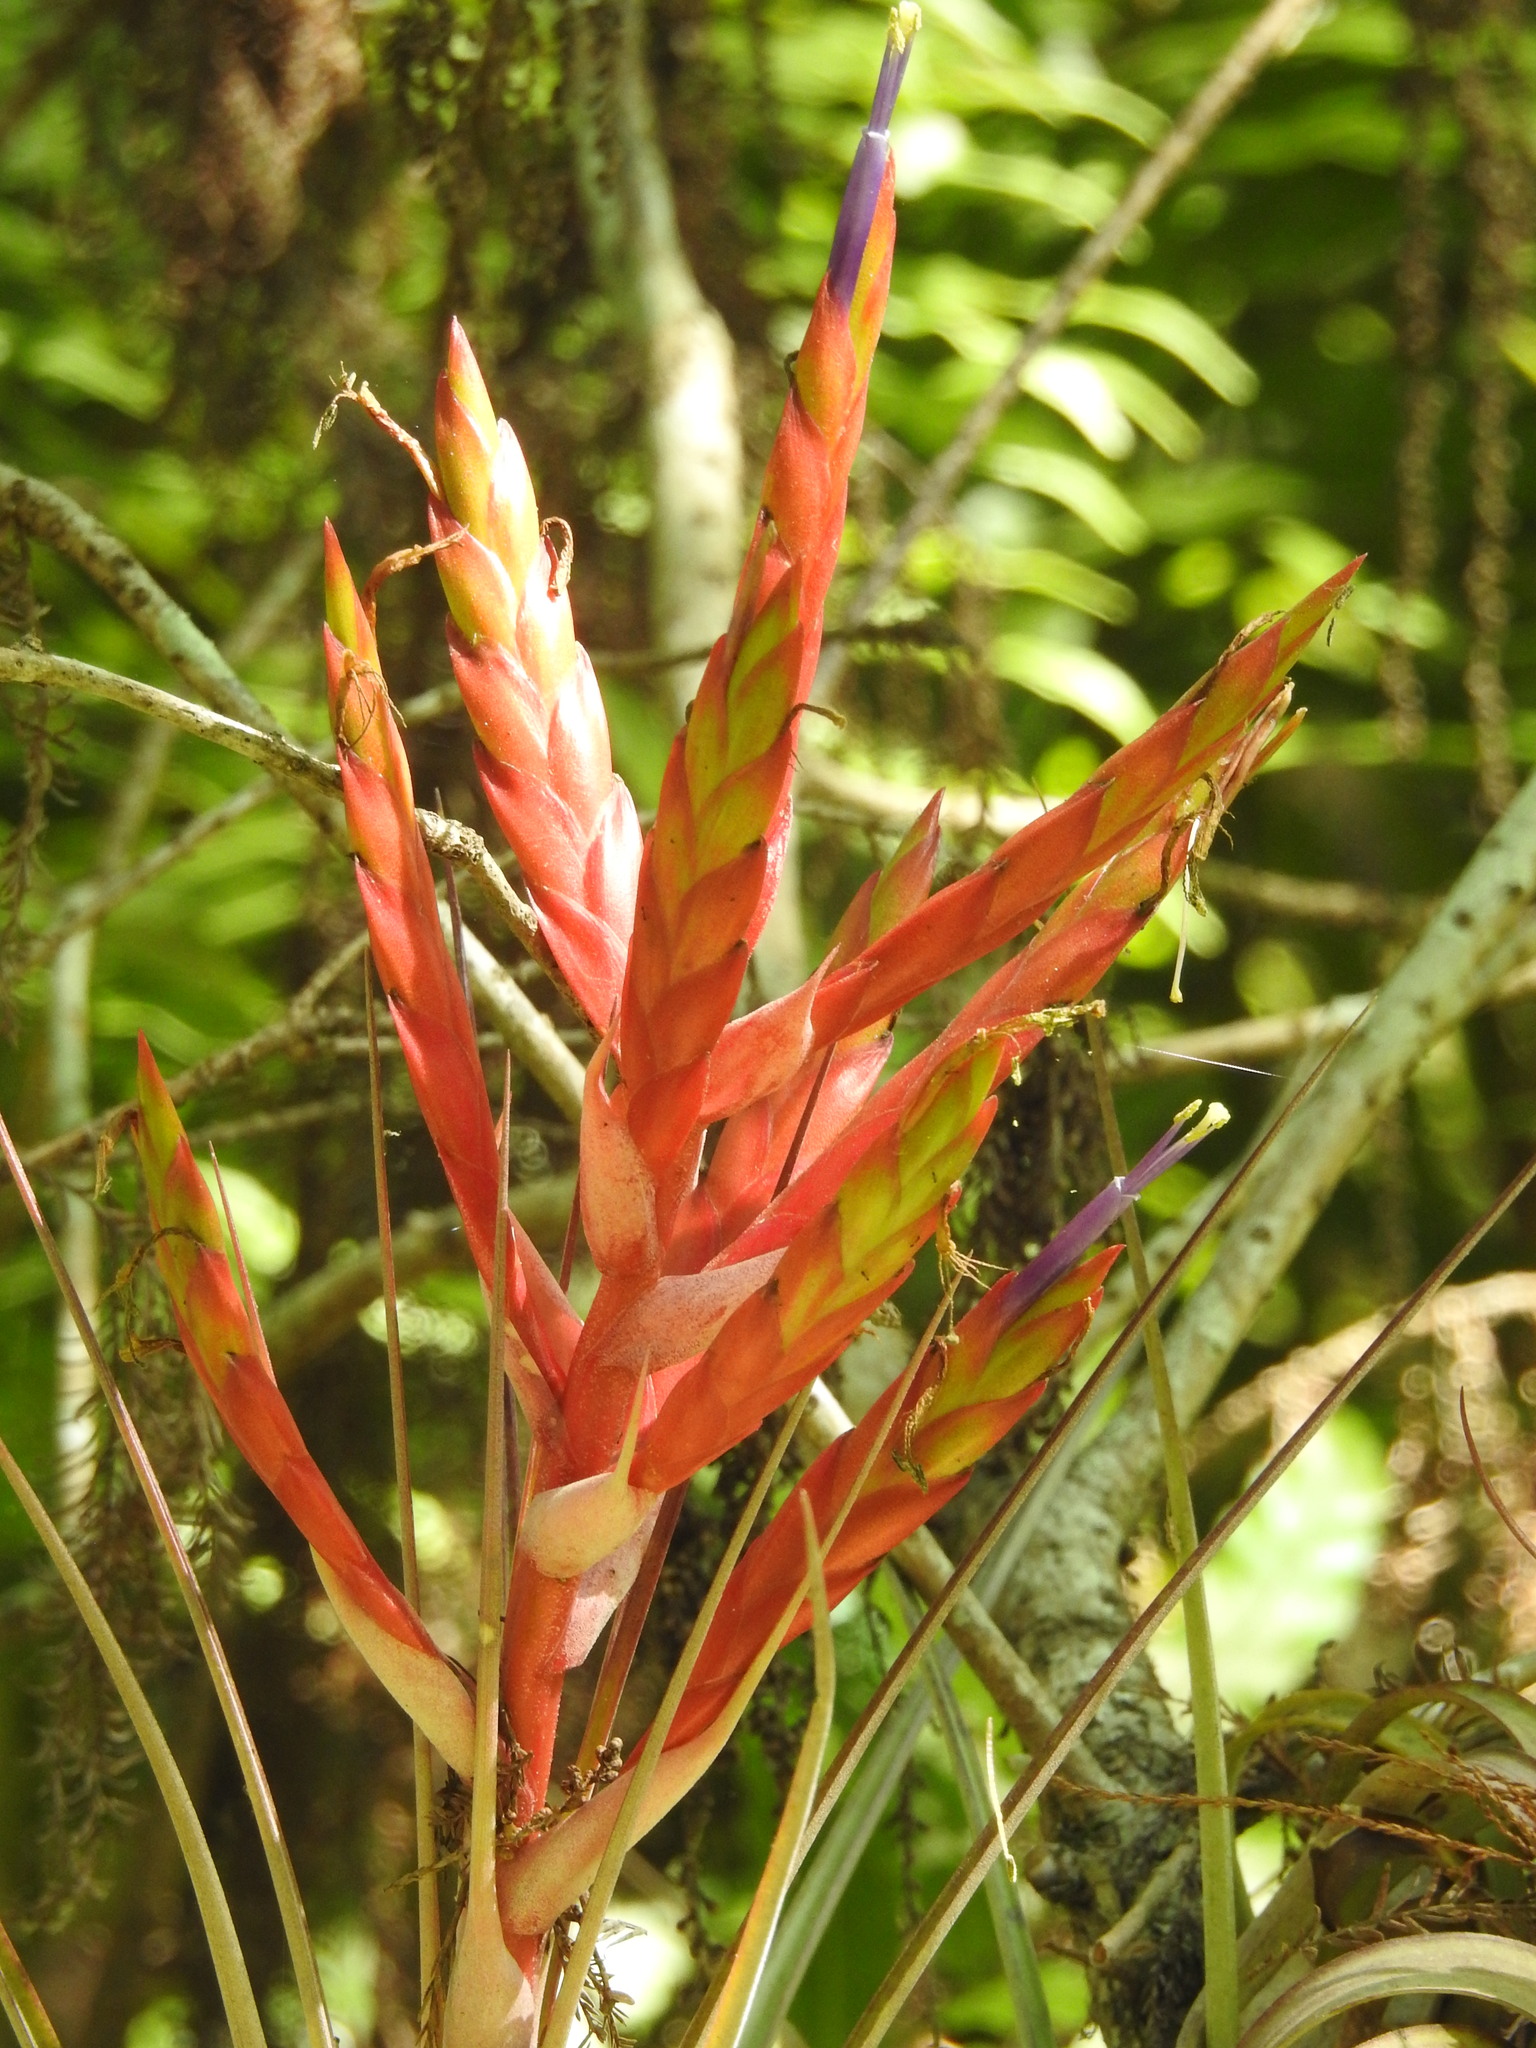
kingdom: Plantae
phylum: Tracheophyta
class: Liliopsida
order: Poales
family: Bromeliaceae
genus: Tillandsia
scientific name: Tillandsia fasciculata
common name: Giant airplant
